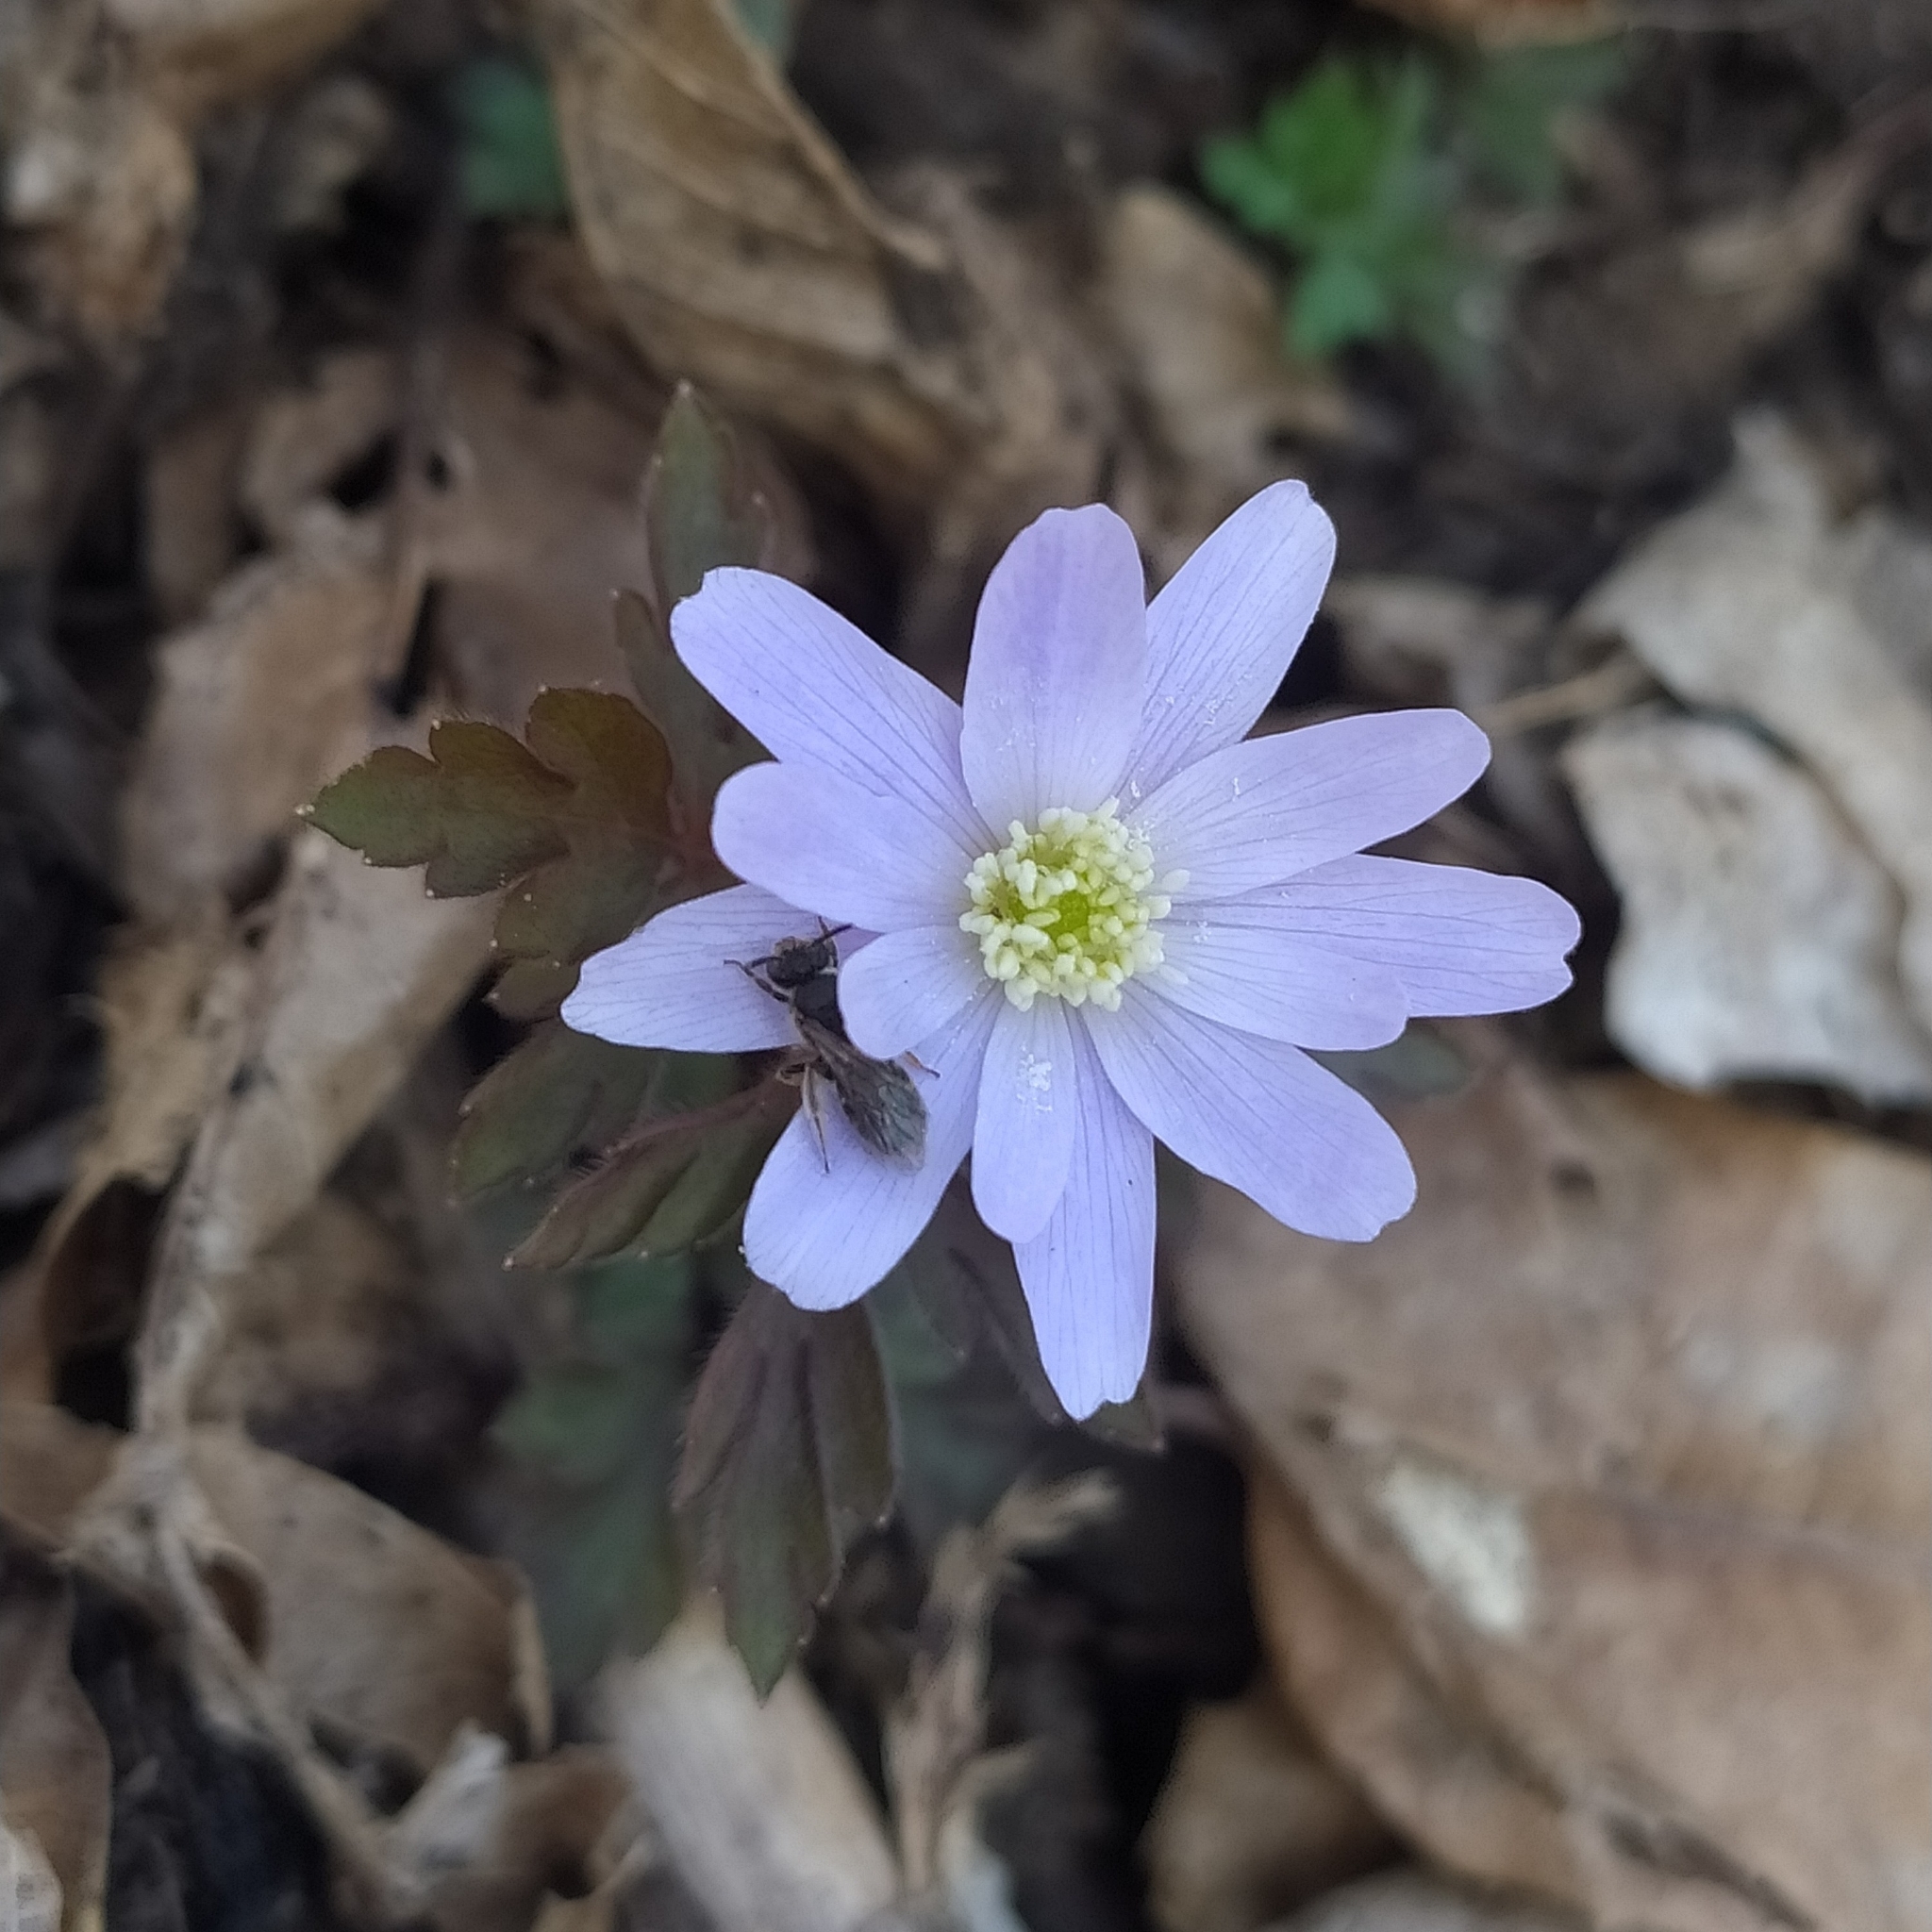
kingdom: Plantae
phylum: Tracheophyta
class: Magnoliopsida
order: Ranunculales
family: Ranunculaceae
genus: Anemone
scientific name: Anemone apennina
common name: Blue anemone
